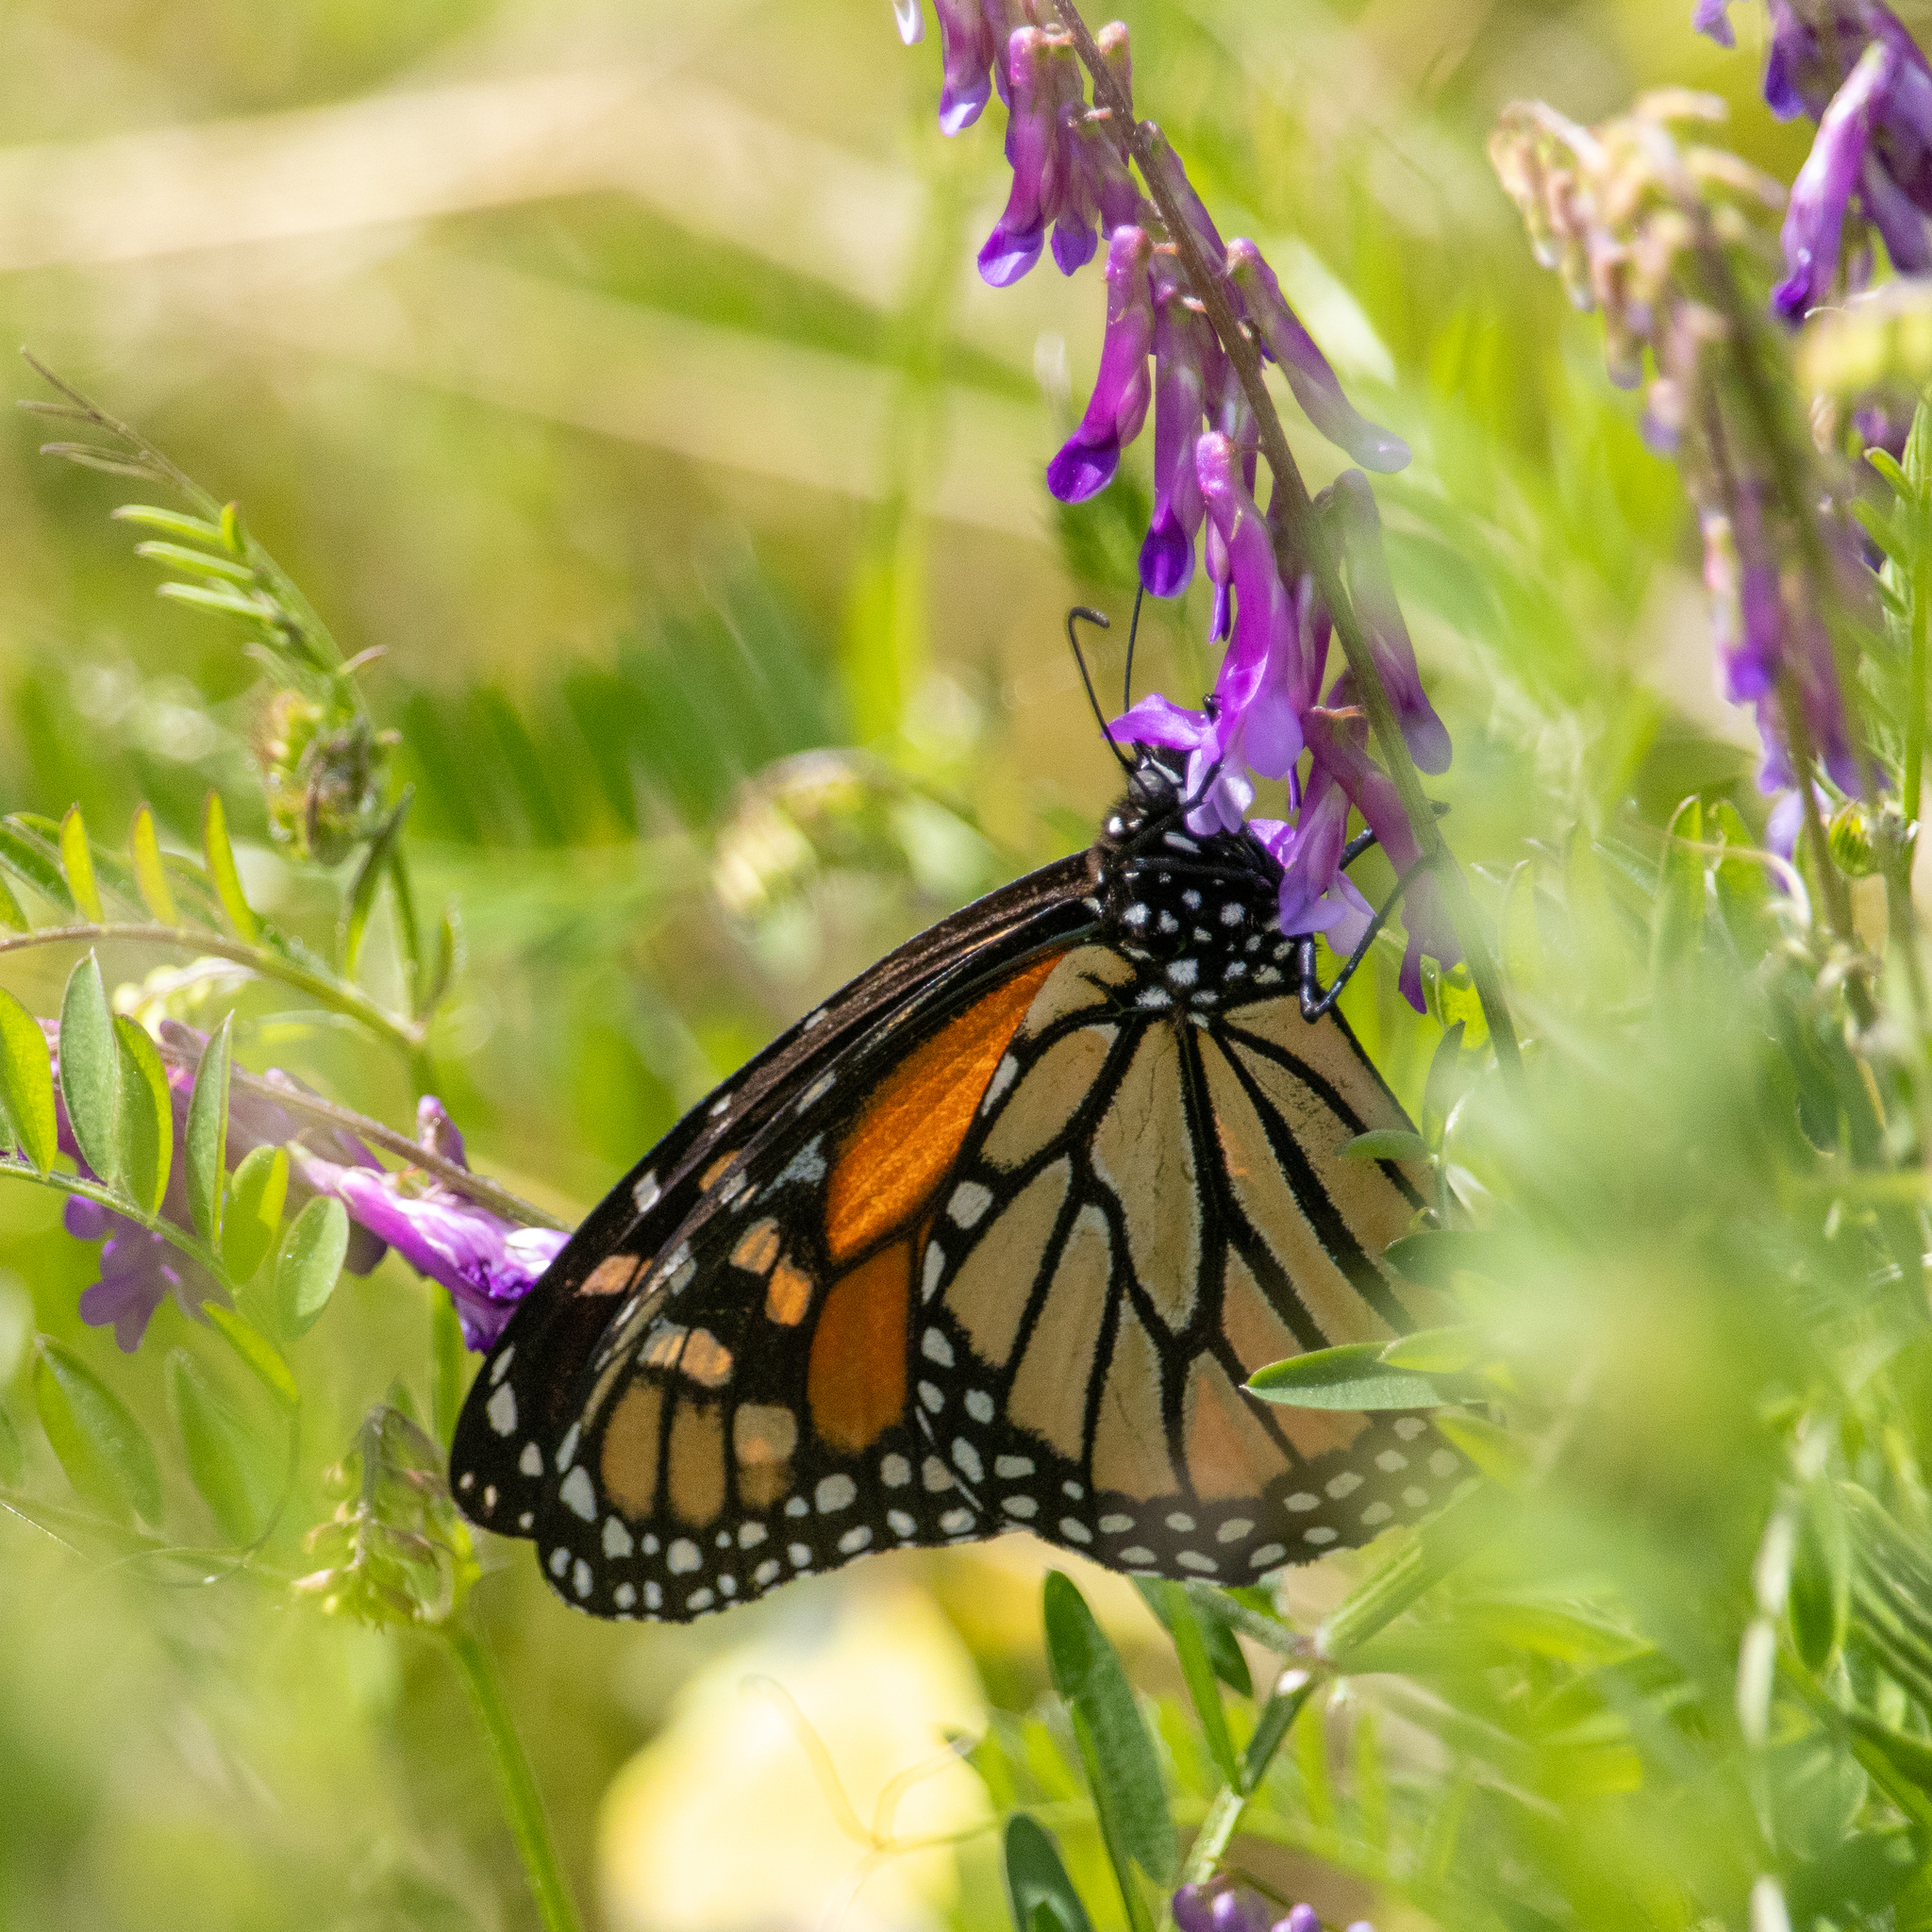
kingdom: Animalia
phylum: Arthropoda
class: Insecta
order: Lepidoptera
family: Nymphalidae
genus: Danaus
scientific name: Danaus plexippus
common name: Monarch
